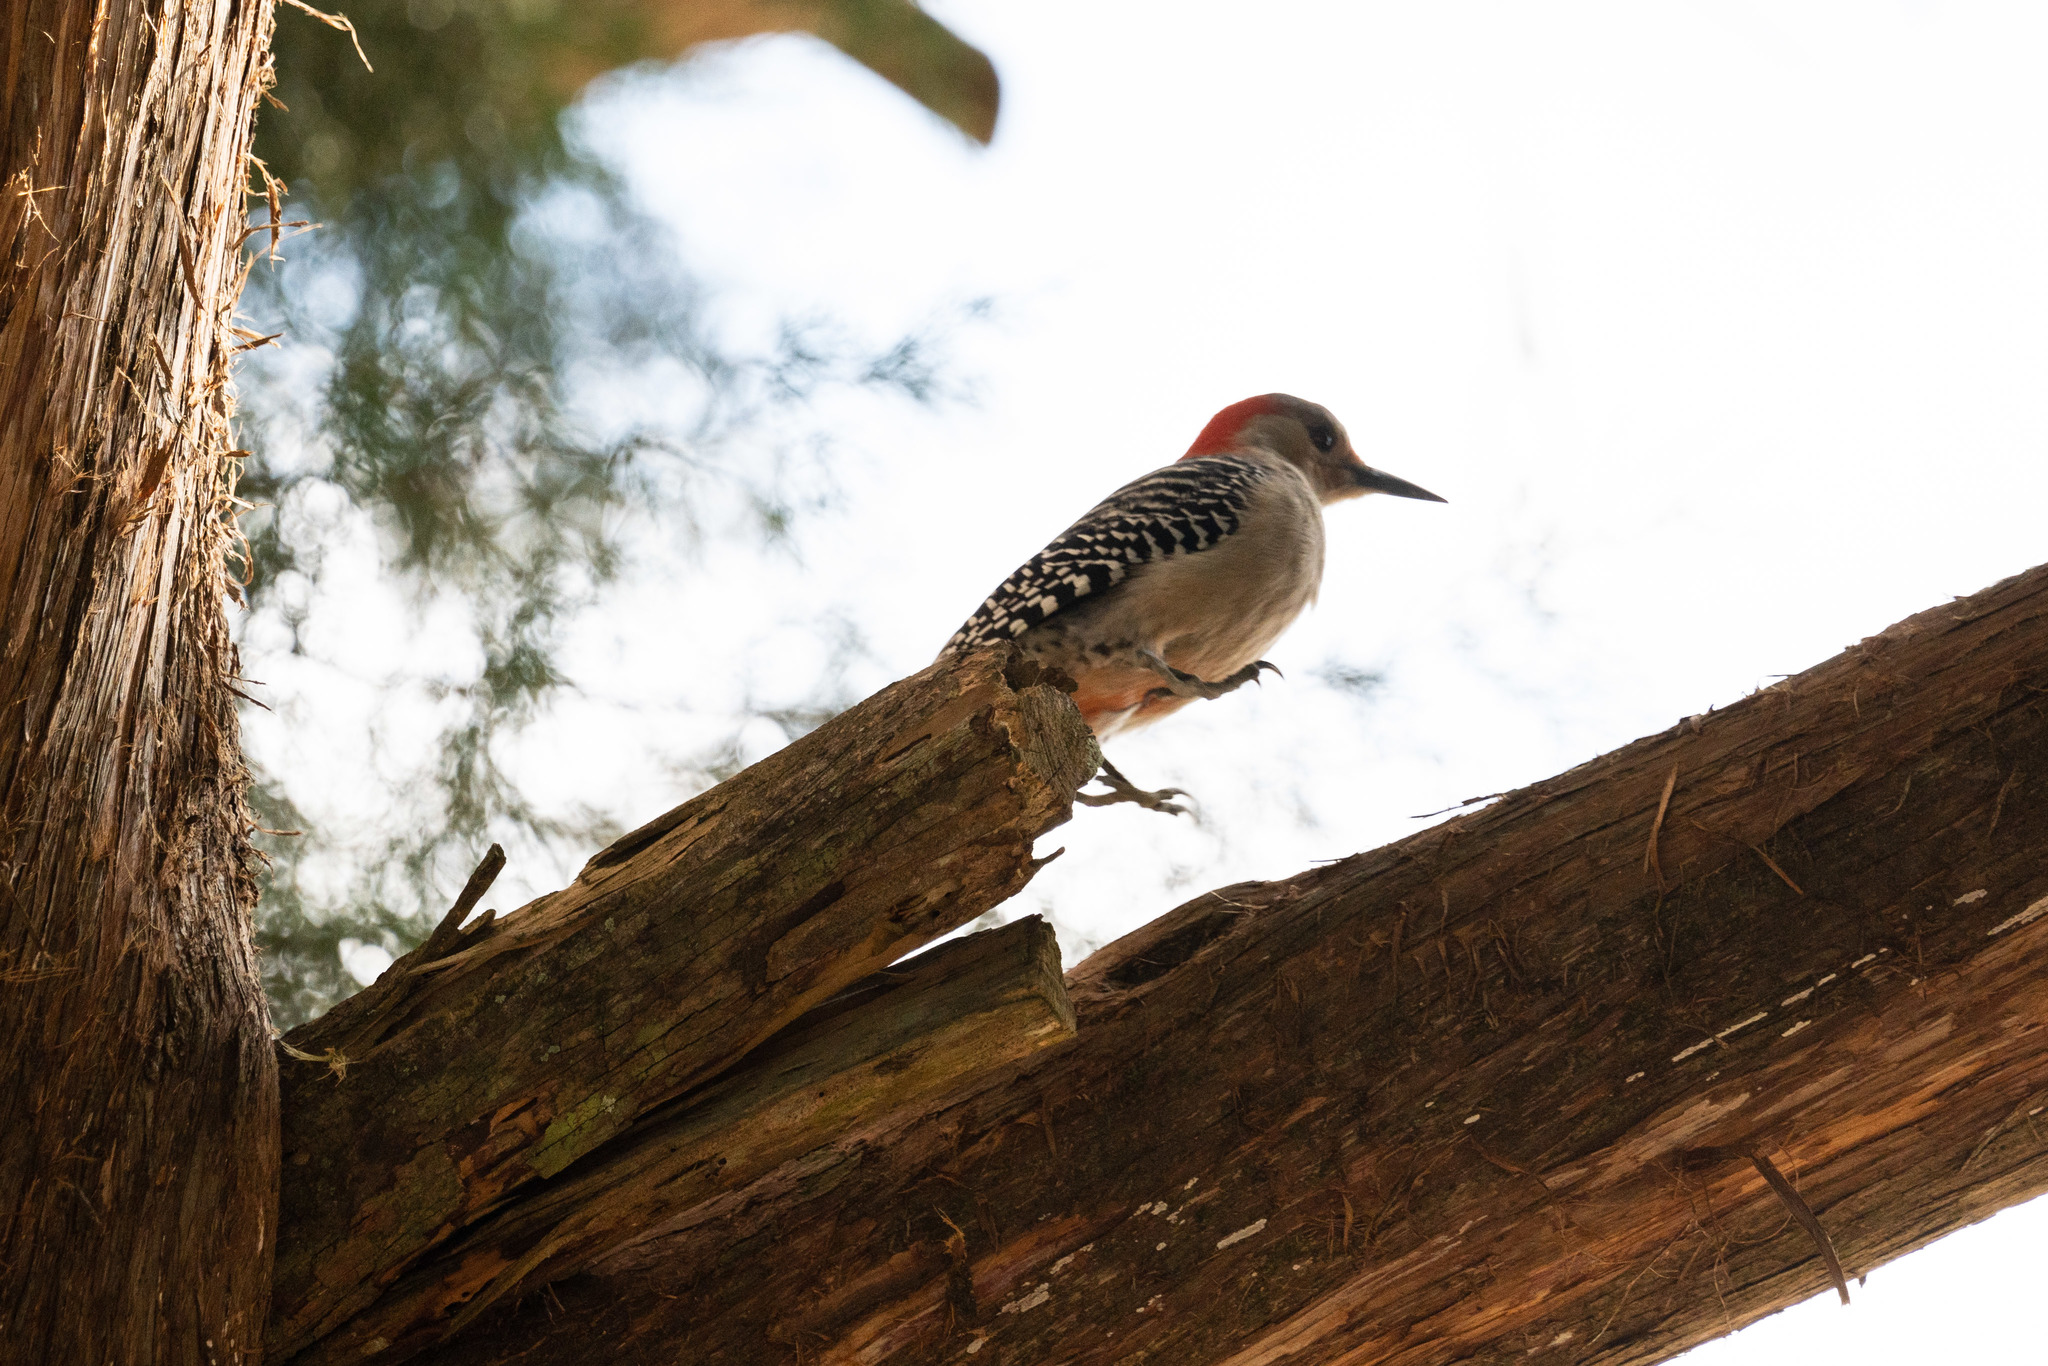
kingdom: Animalia
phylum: Chordata
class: Aves
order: Piciformes
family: Picidae
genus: Melanerpes
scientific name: Melanerpes carolinus
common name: Red-bellied woodpecker
